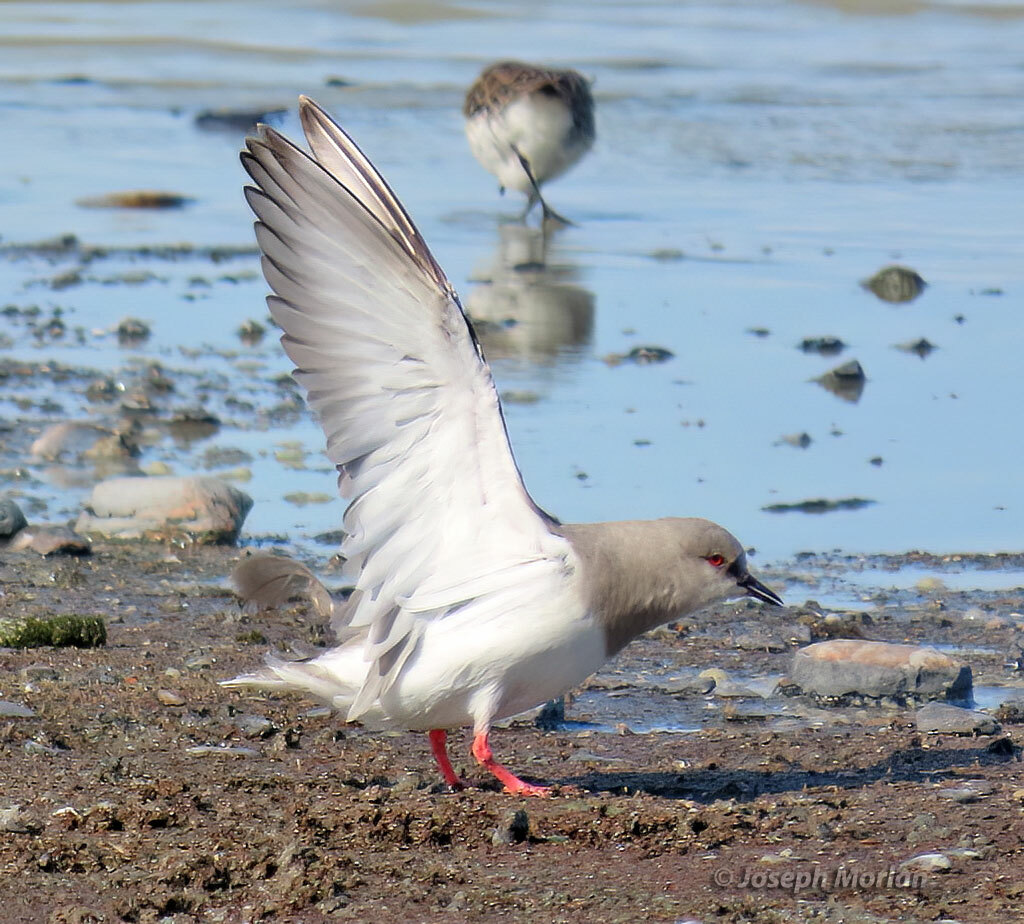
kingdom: Animalia
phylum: Chordata
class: Aves
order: Charadriiformes
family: Pluvianellidae
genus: Pluvianellus
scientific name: Pluvianellus socialis
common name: Magellanic plover
